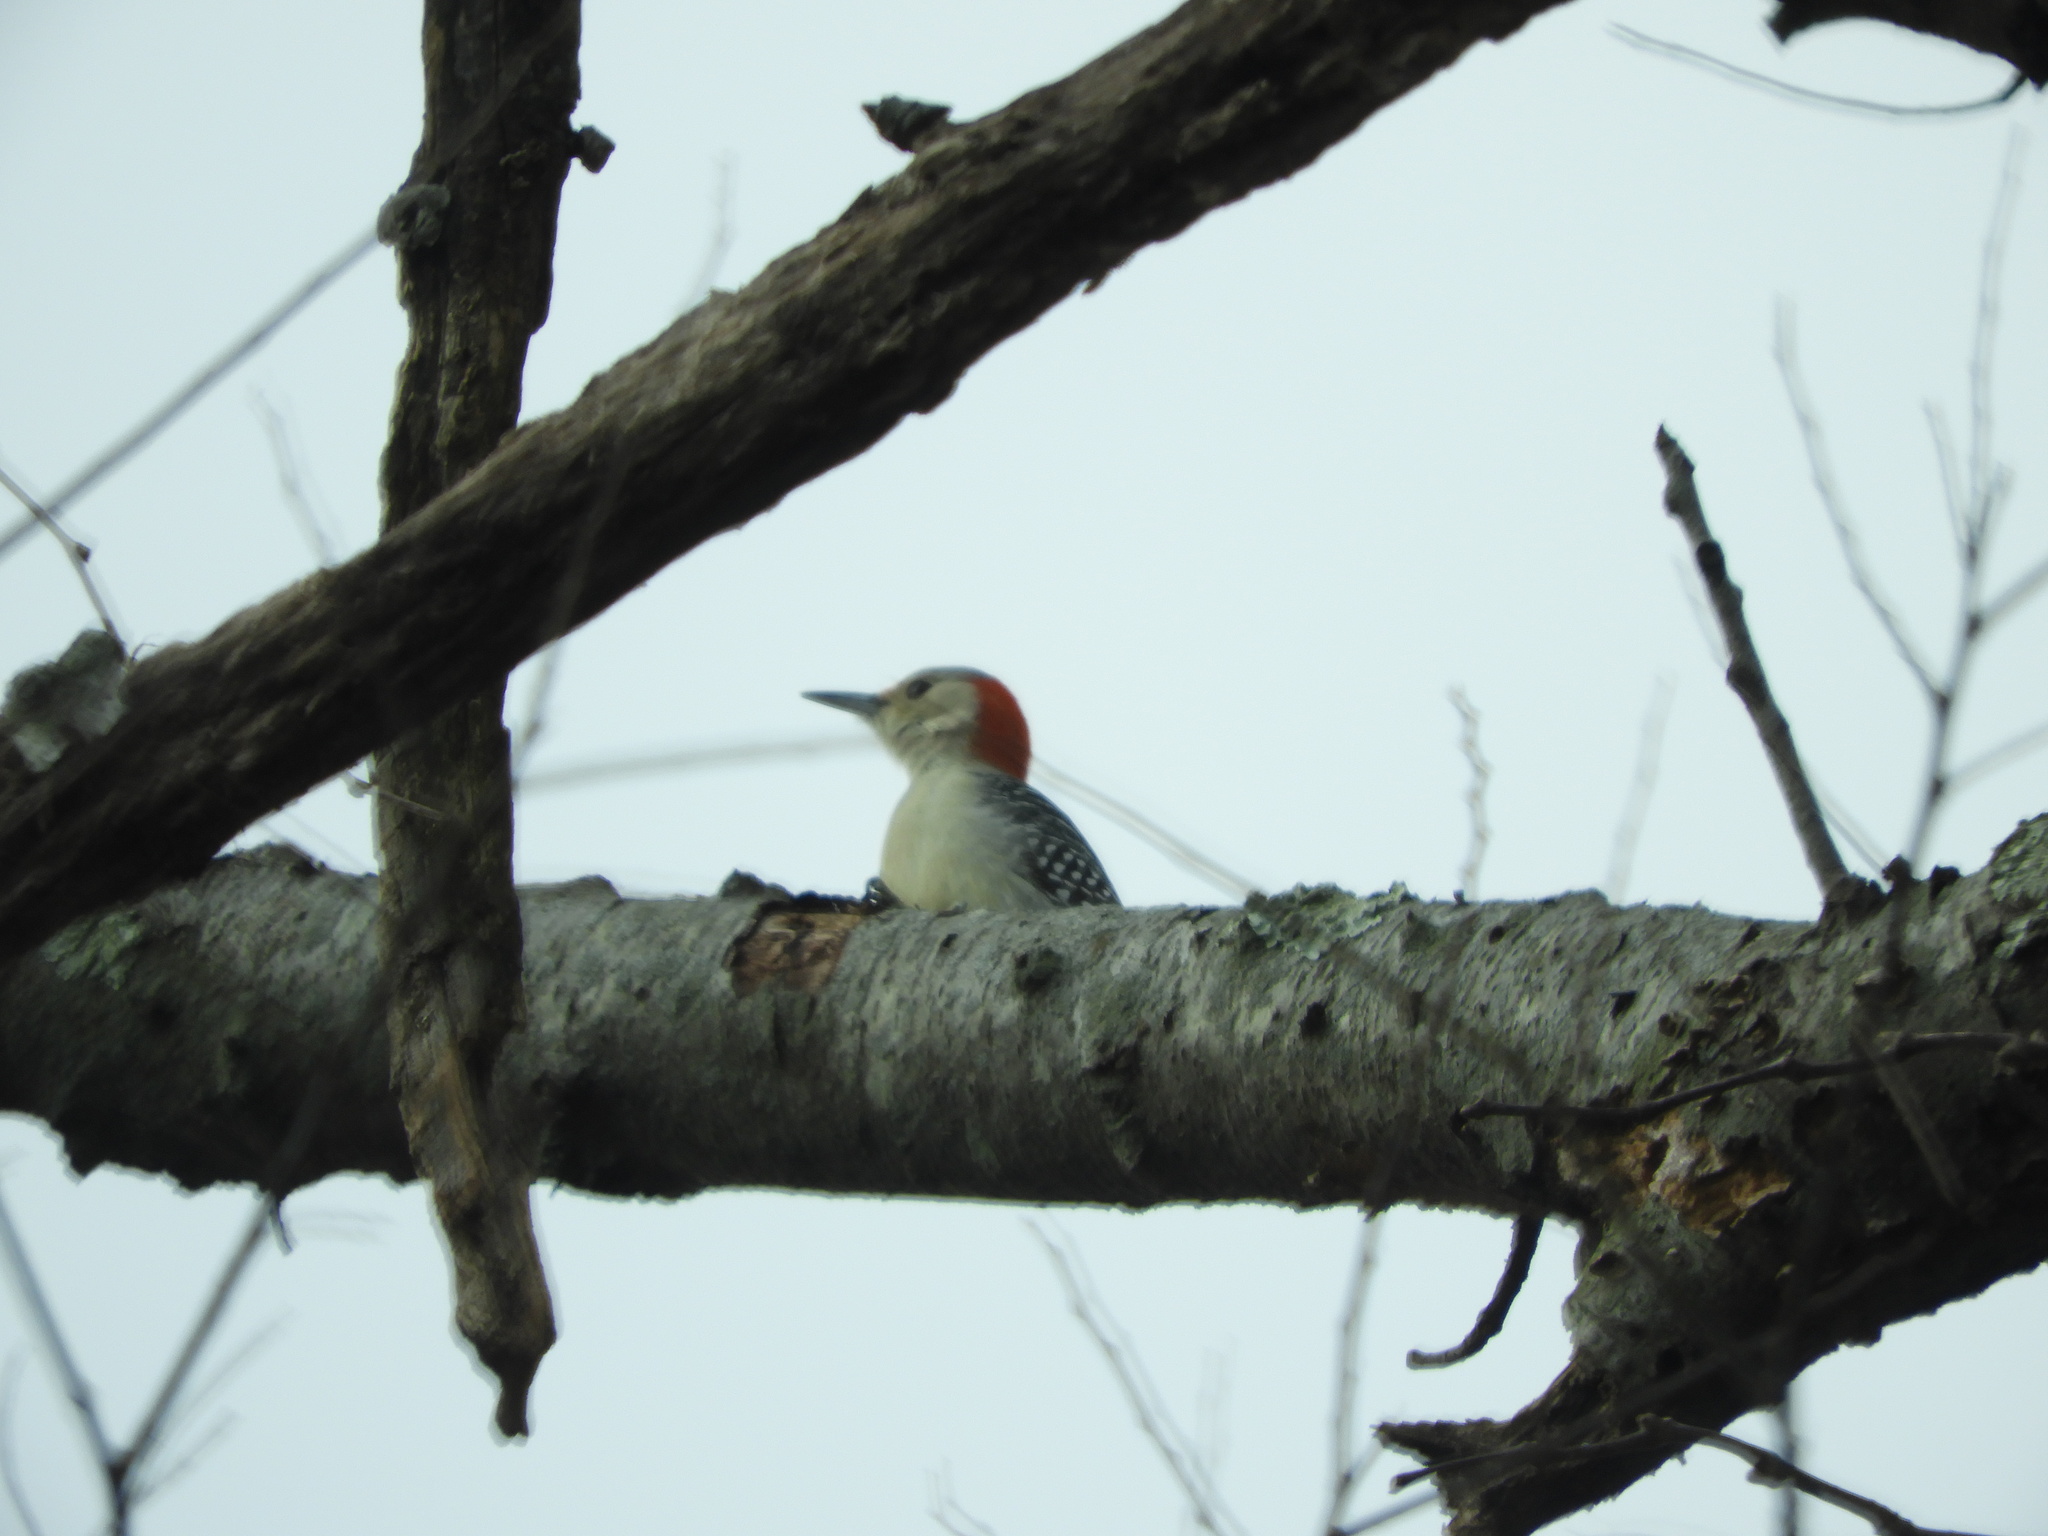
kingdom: Animalia
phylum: Chordata
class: Aves
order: Piciformes
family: Picidae
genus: Melanerpes
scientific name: Melanerpes carolinus
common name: Red-bellied woodpecker
